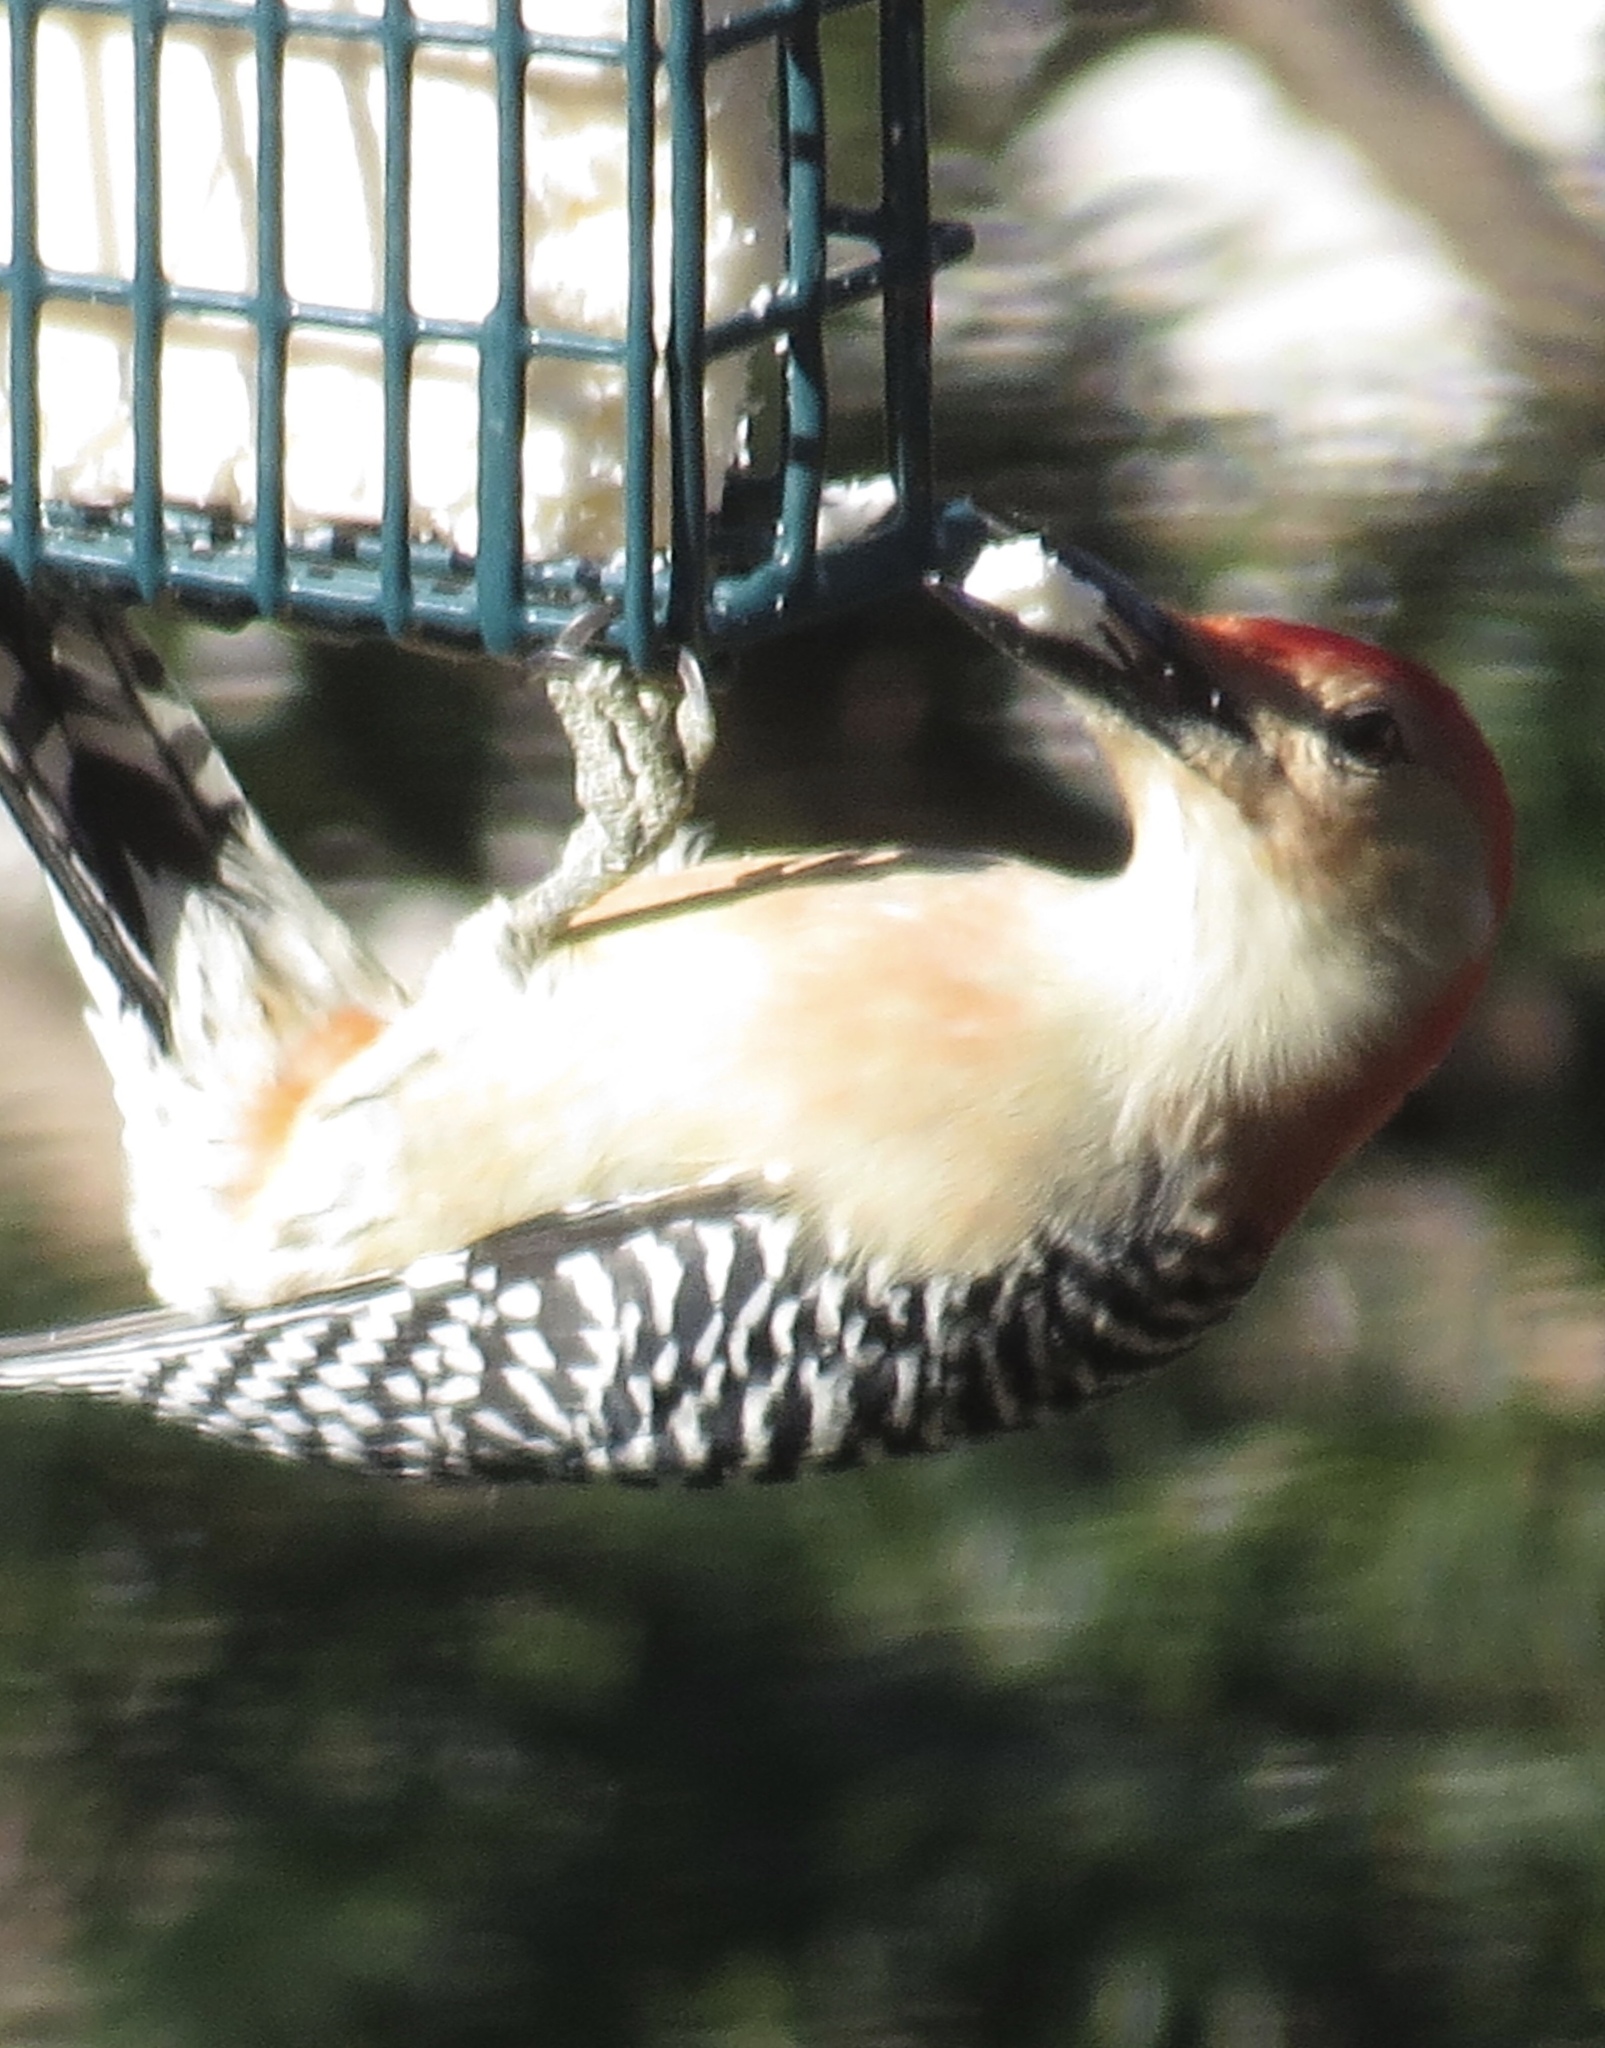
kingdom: Animalia
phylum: Chordata
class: Aves
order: Piciformes
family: Picidae
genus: Melanerpes
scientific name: Melanerpes carolinus
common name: Red-bellied woodpecker
